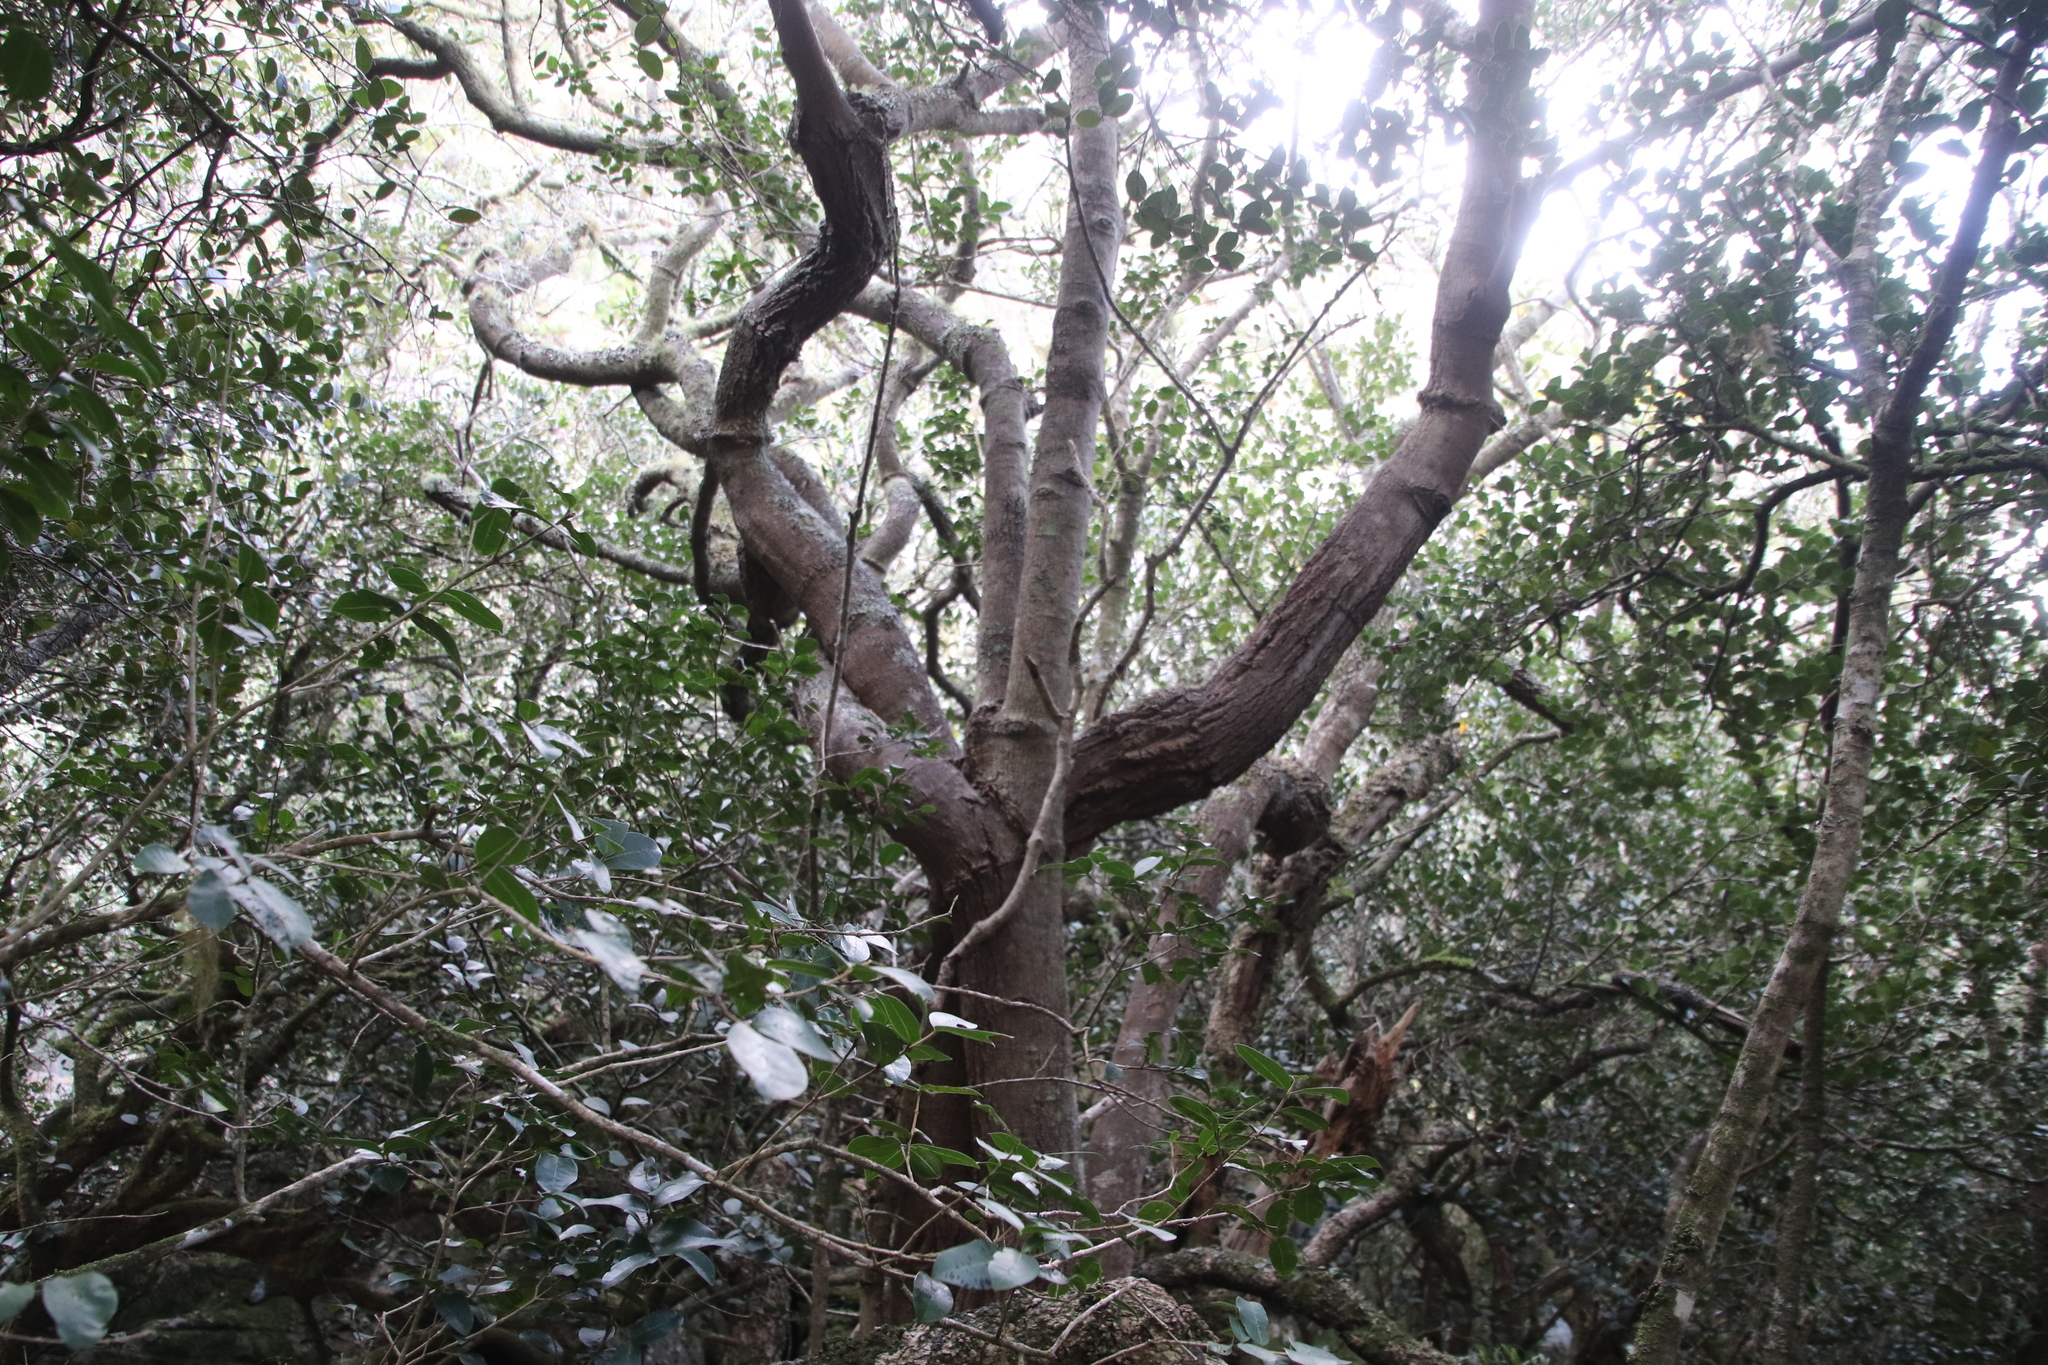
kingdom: Plantae
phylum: Tracheophyta
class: Magnoliopsida
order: Lamiales
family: Oleaceae
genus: Noronhia
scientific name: Noronhia foveolata
